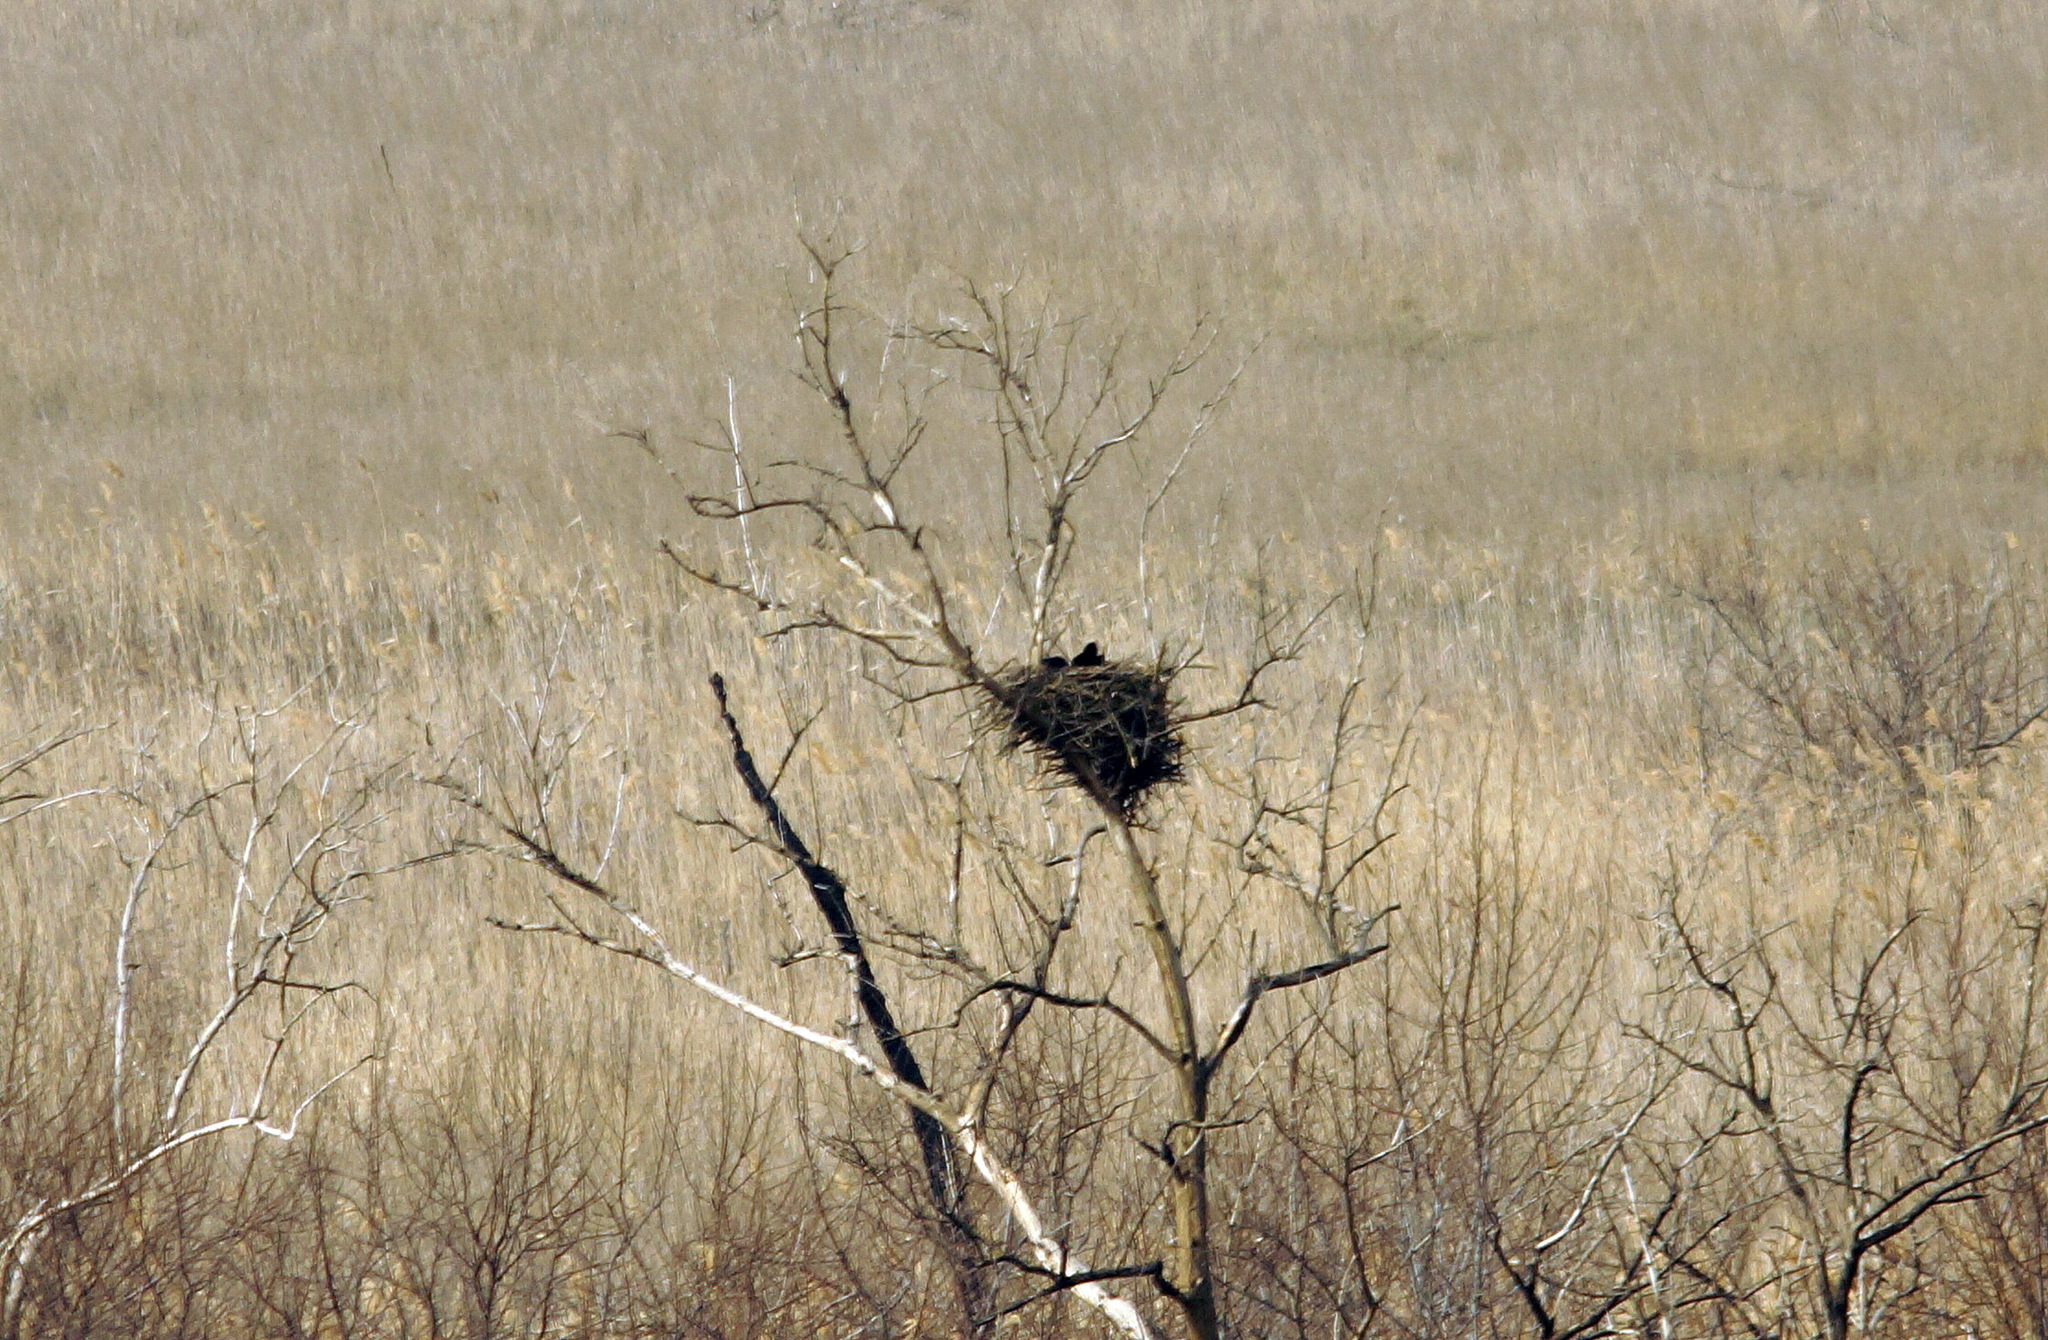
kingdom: Animalia
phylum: Chordata
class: Aves
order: Passeriformes
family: Corvidae
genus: Corvus
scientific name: Corvus corax
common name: Common raven
